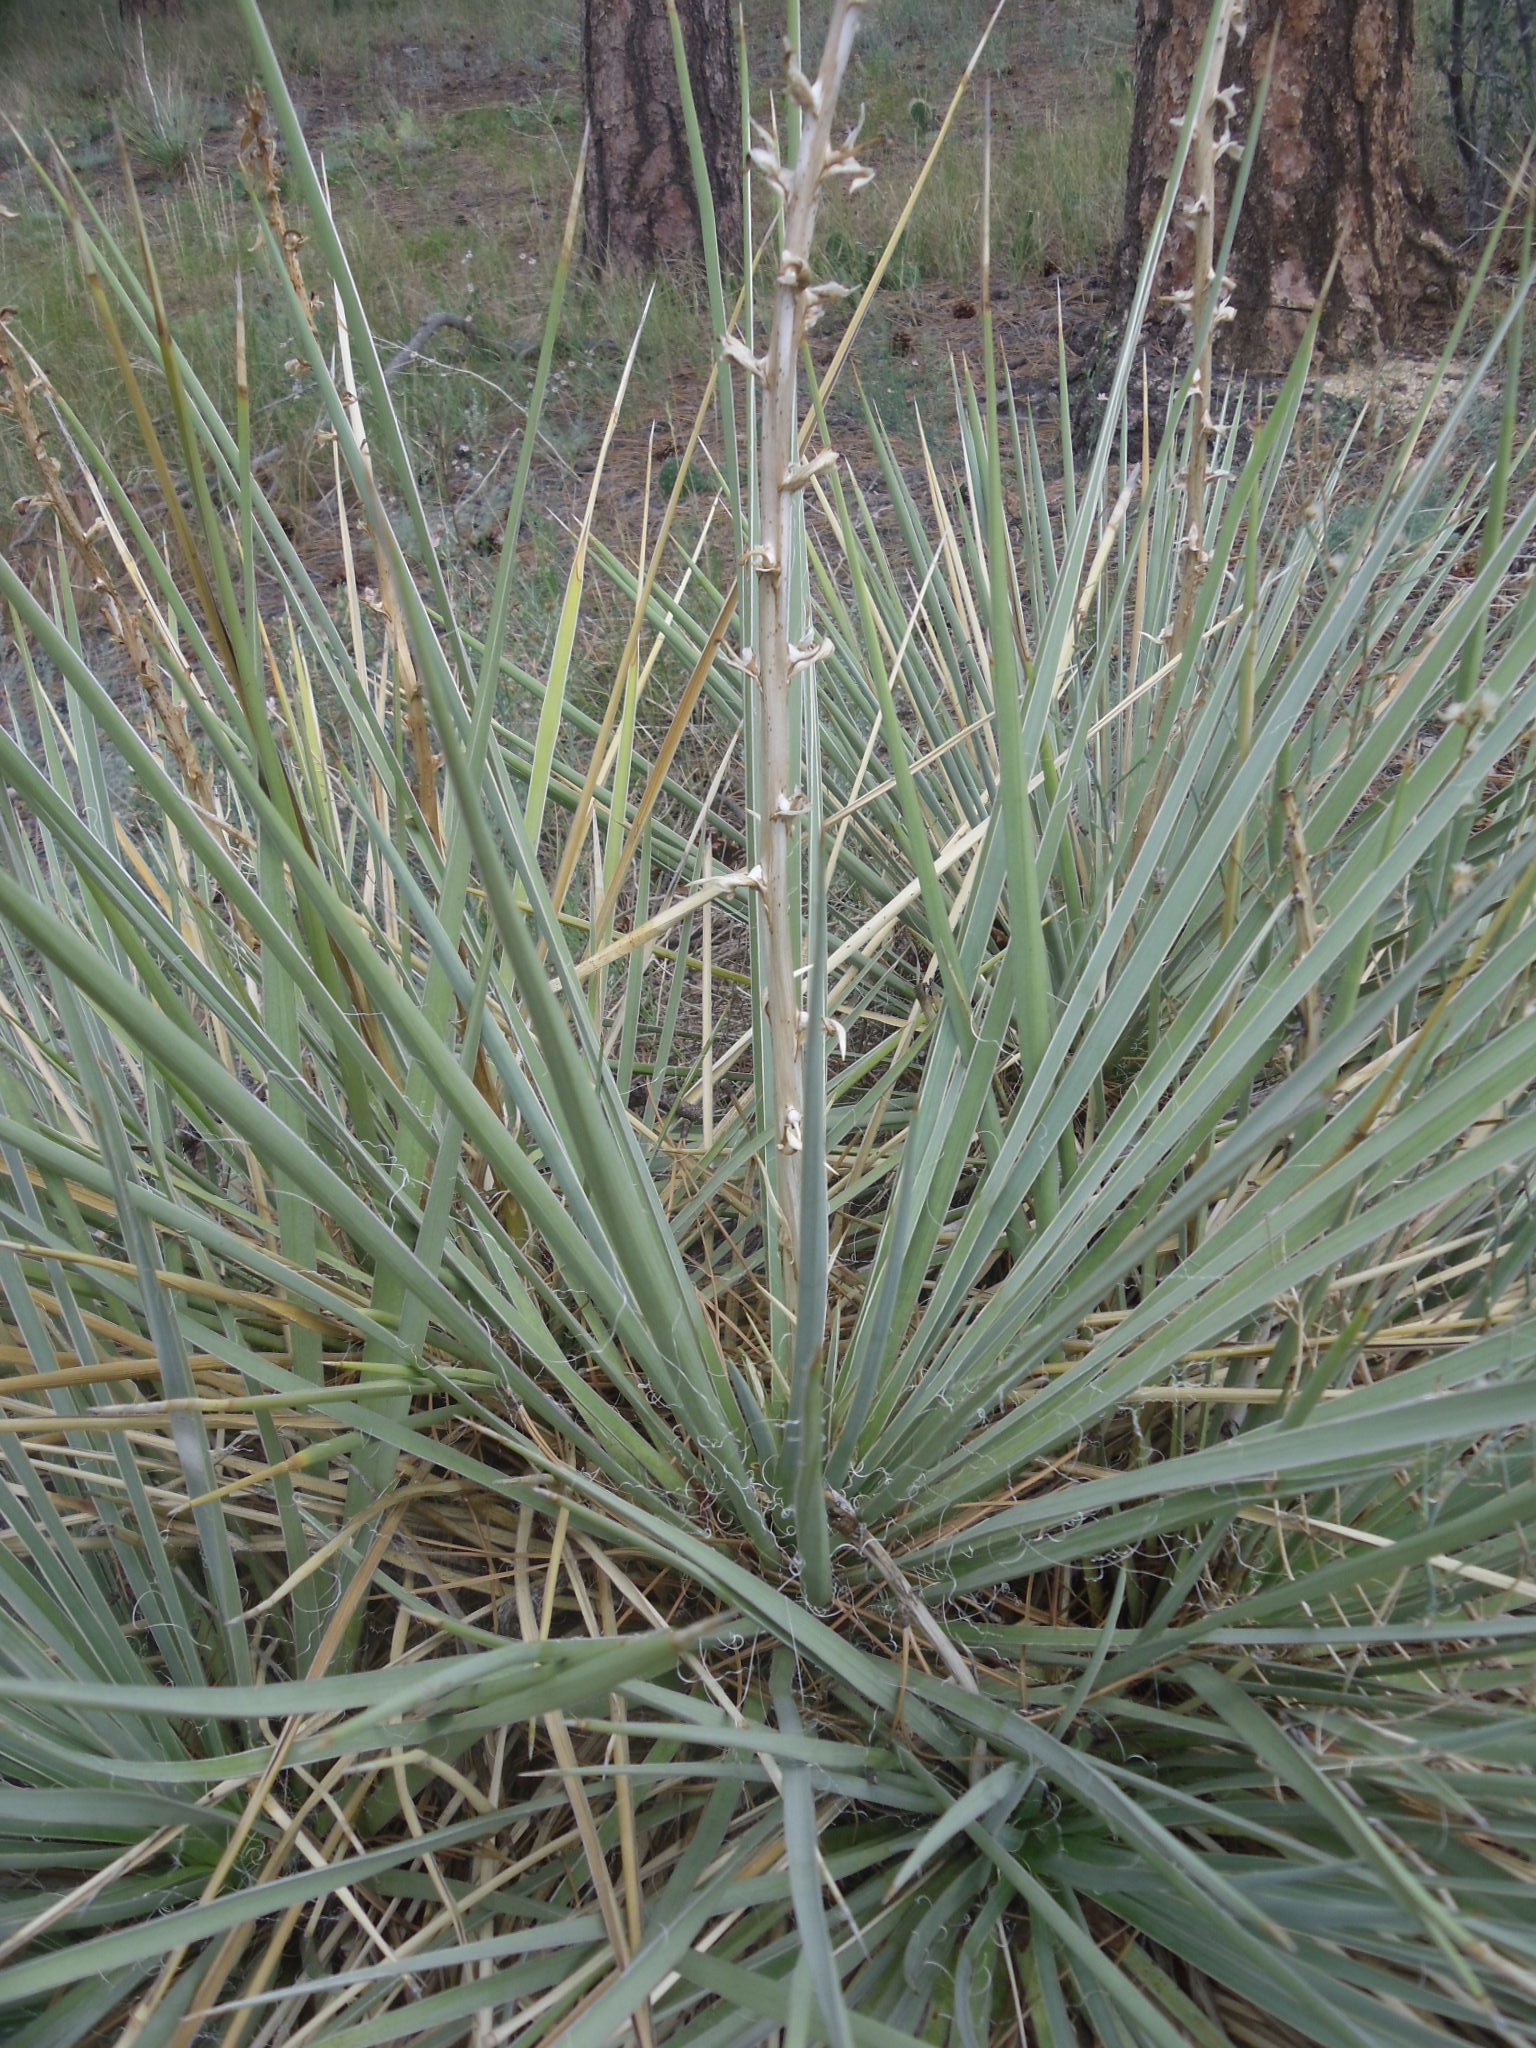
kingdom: Plantae
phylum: Tracheophyta
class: Liliopsida
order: Asparagales
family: Asparagaceae
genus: Yucca
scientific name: Yucca glauca
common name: Great plains yucca
